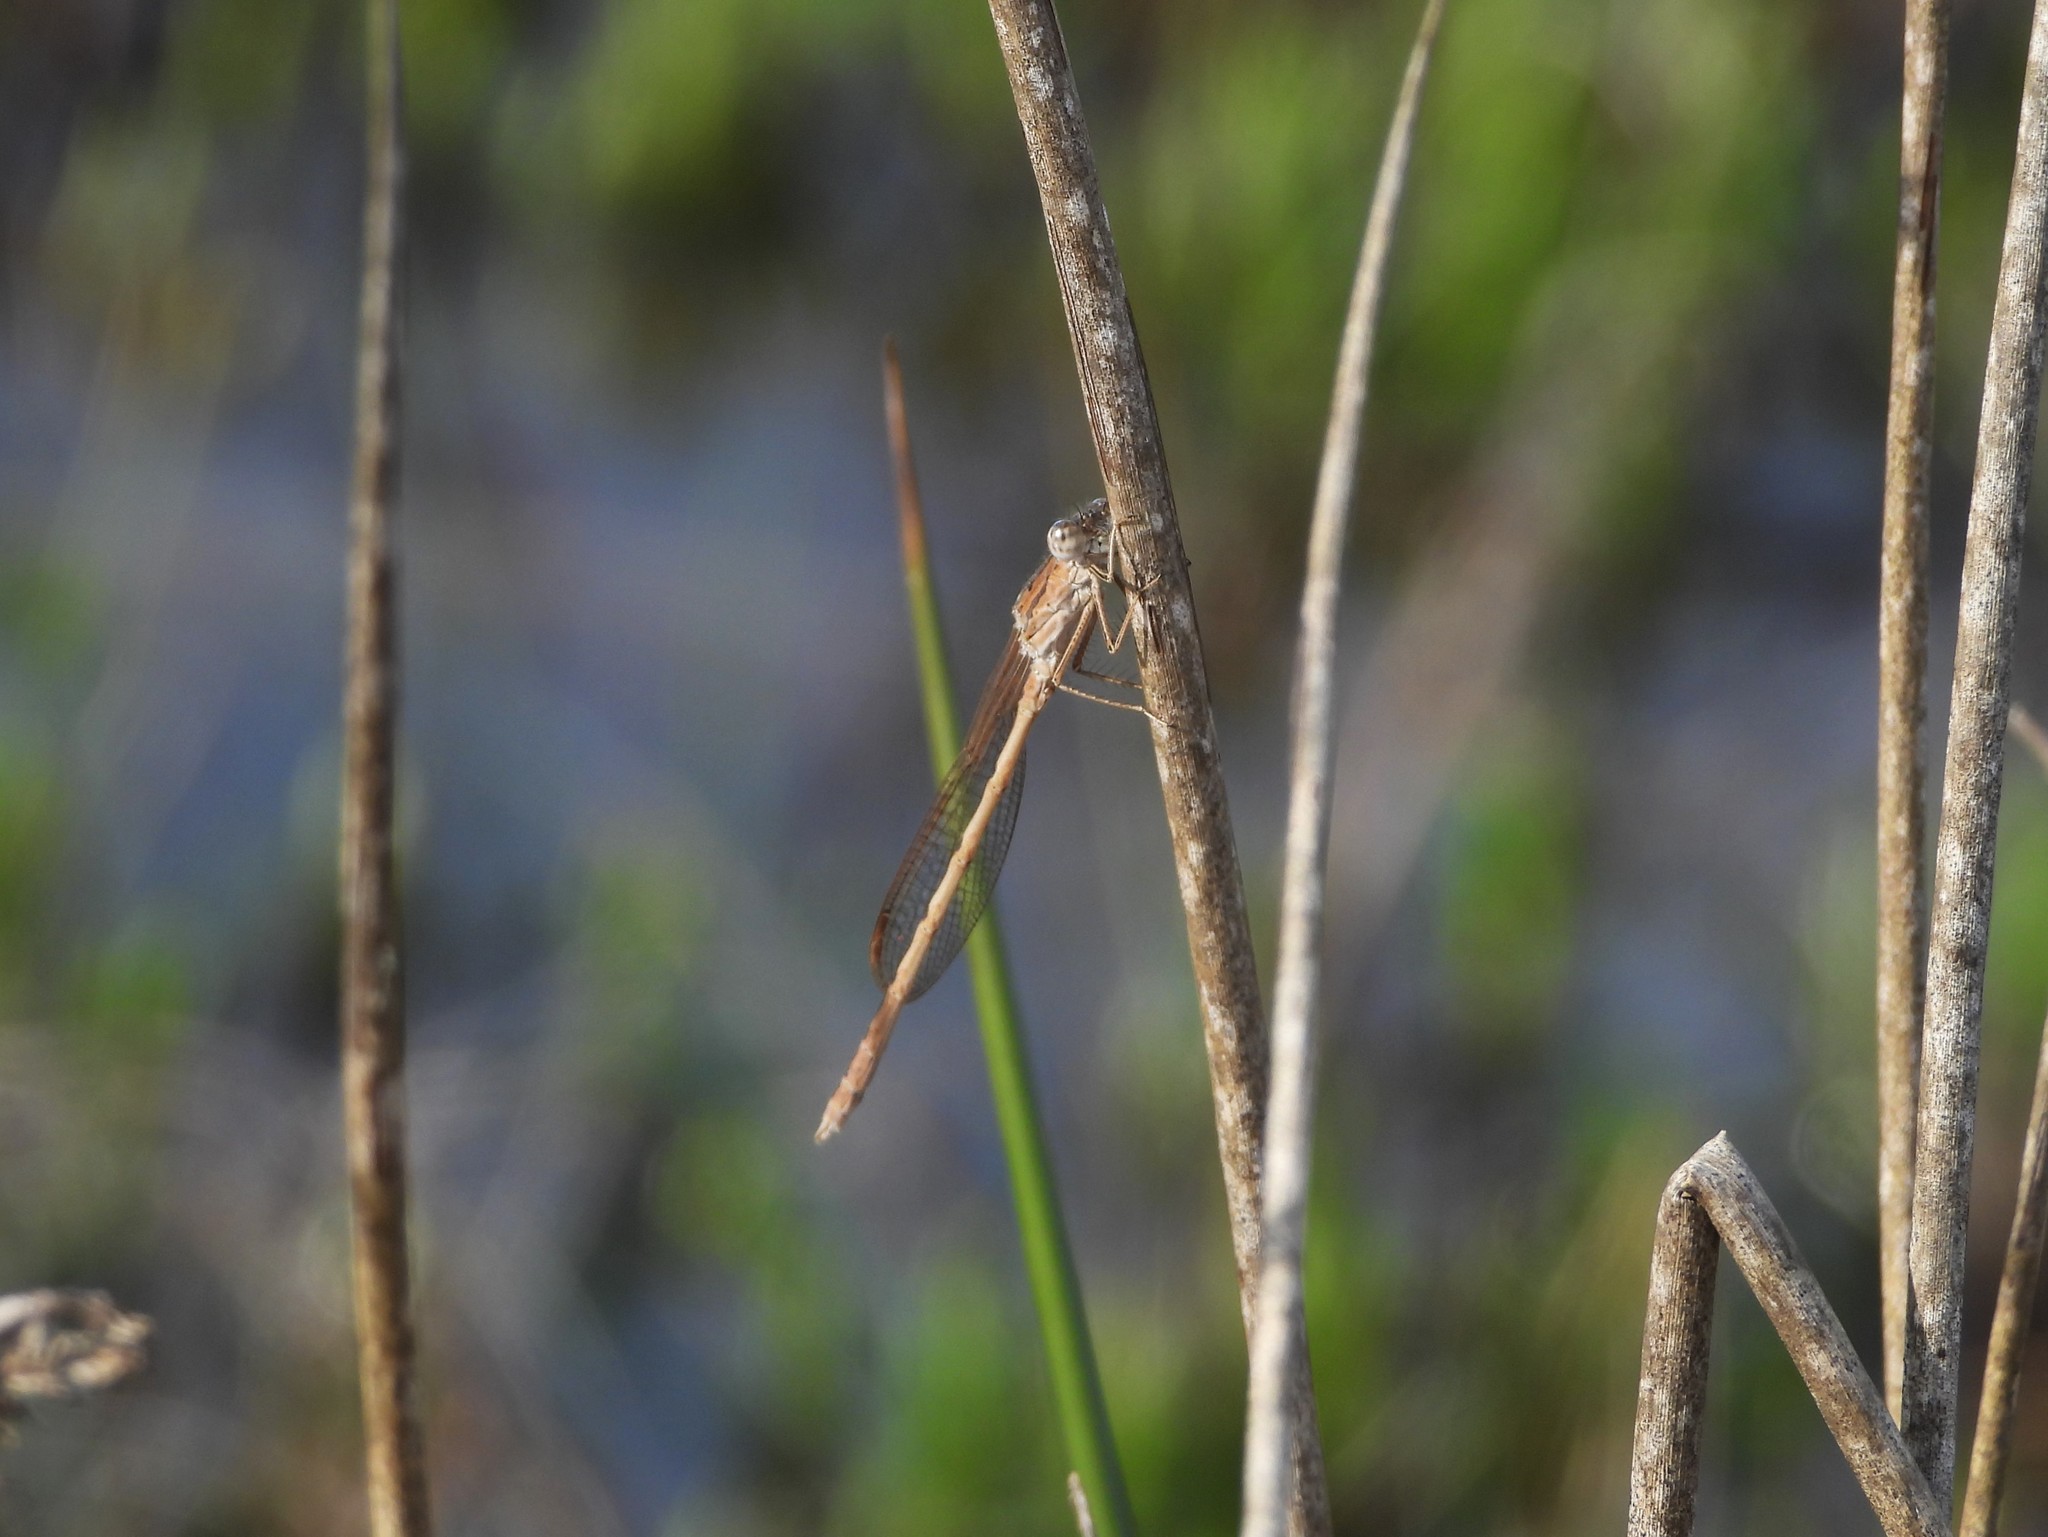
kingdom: Animalia
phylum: Arthropoda
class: Insecta
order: Odonata
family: Lestidae
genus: Sympecma
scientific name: Sympecma paedisca
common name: Siberian winter damsel
